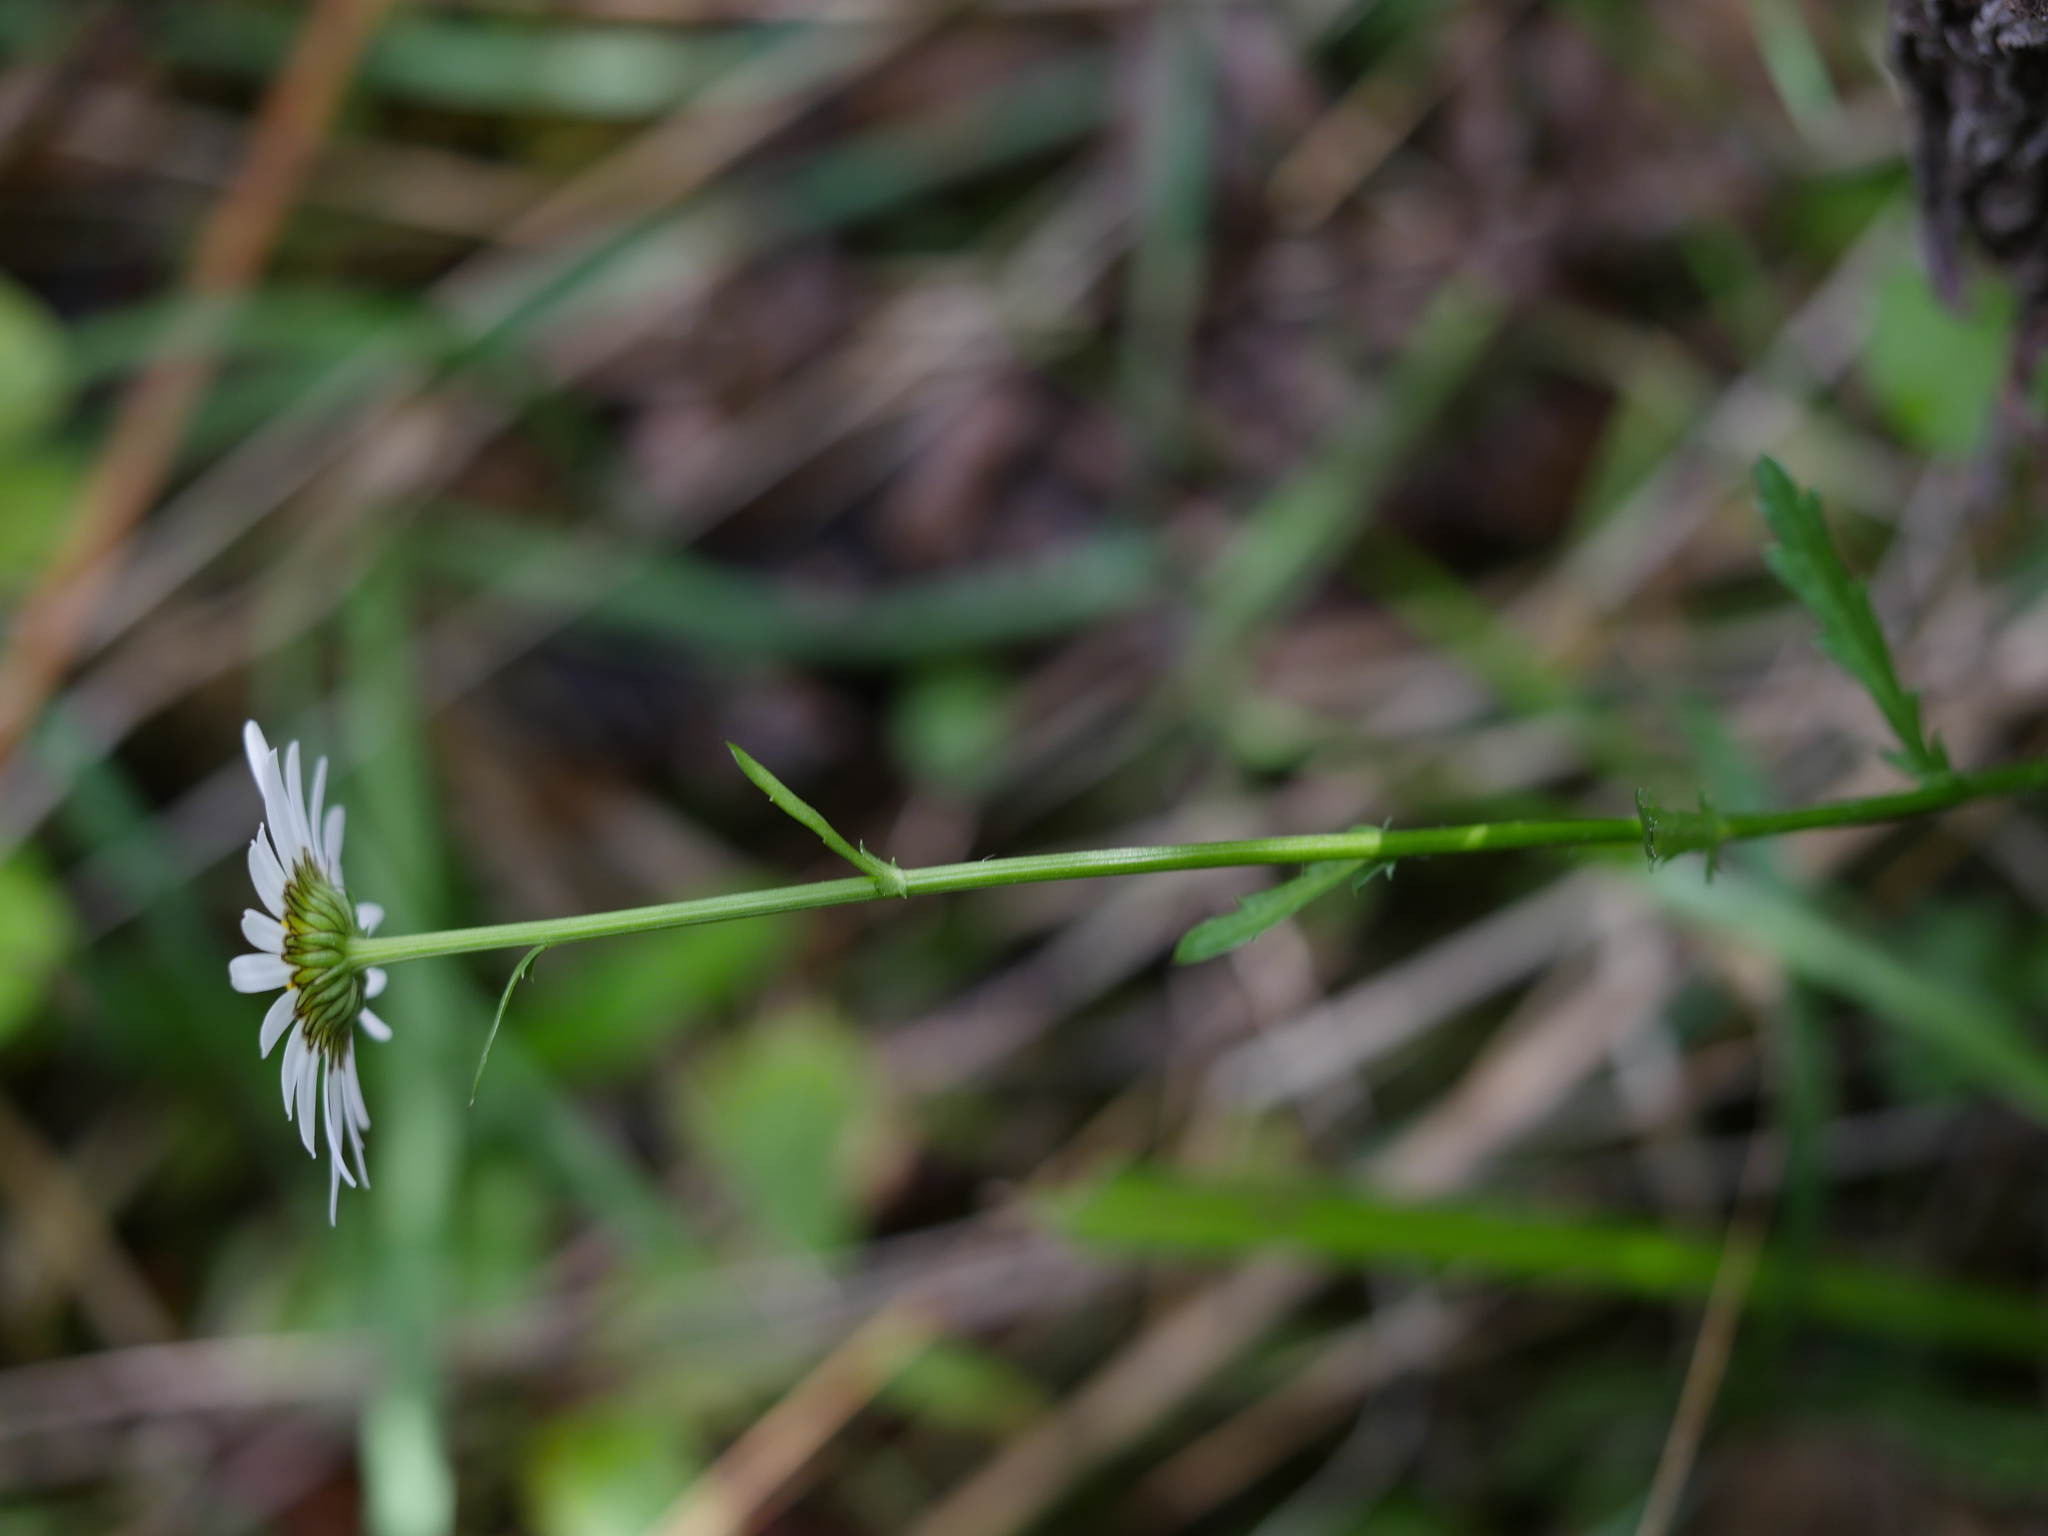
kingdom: Plantae
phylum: Tracheophyta
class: Magnoliopsida
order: Asterales
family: Asteraceae
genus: Leucanthemum
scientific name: Leucanthemum vulgare
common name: Oxeye daisy
